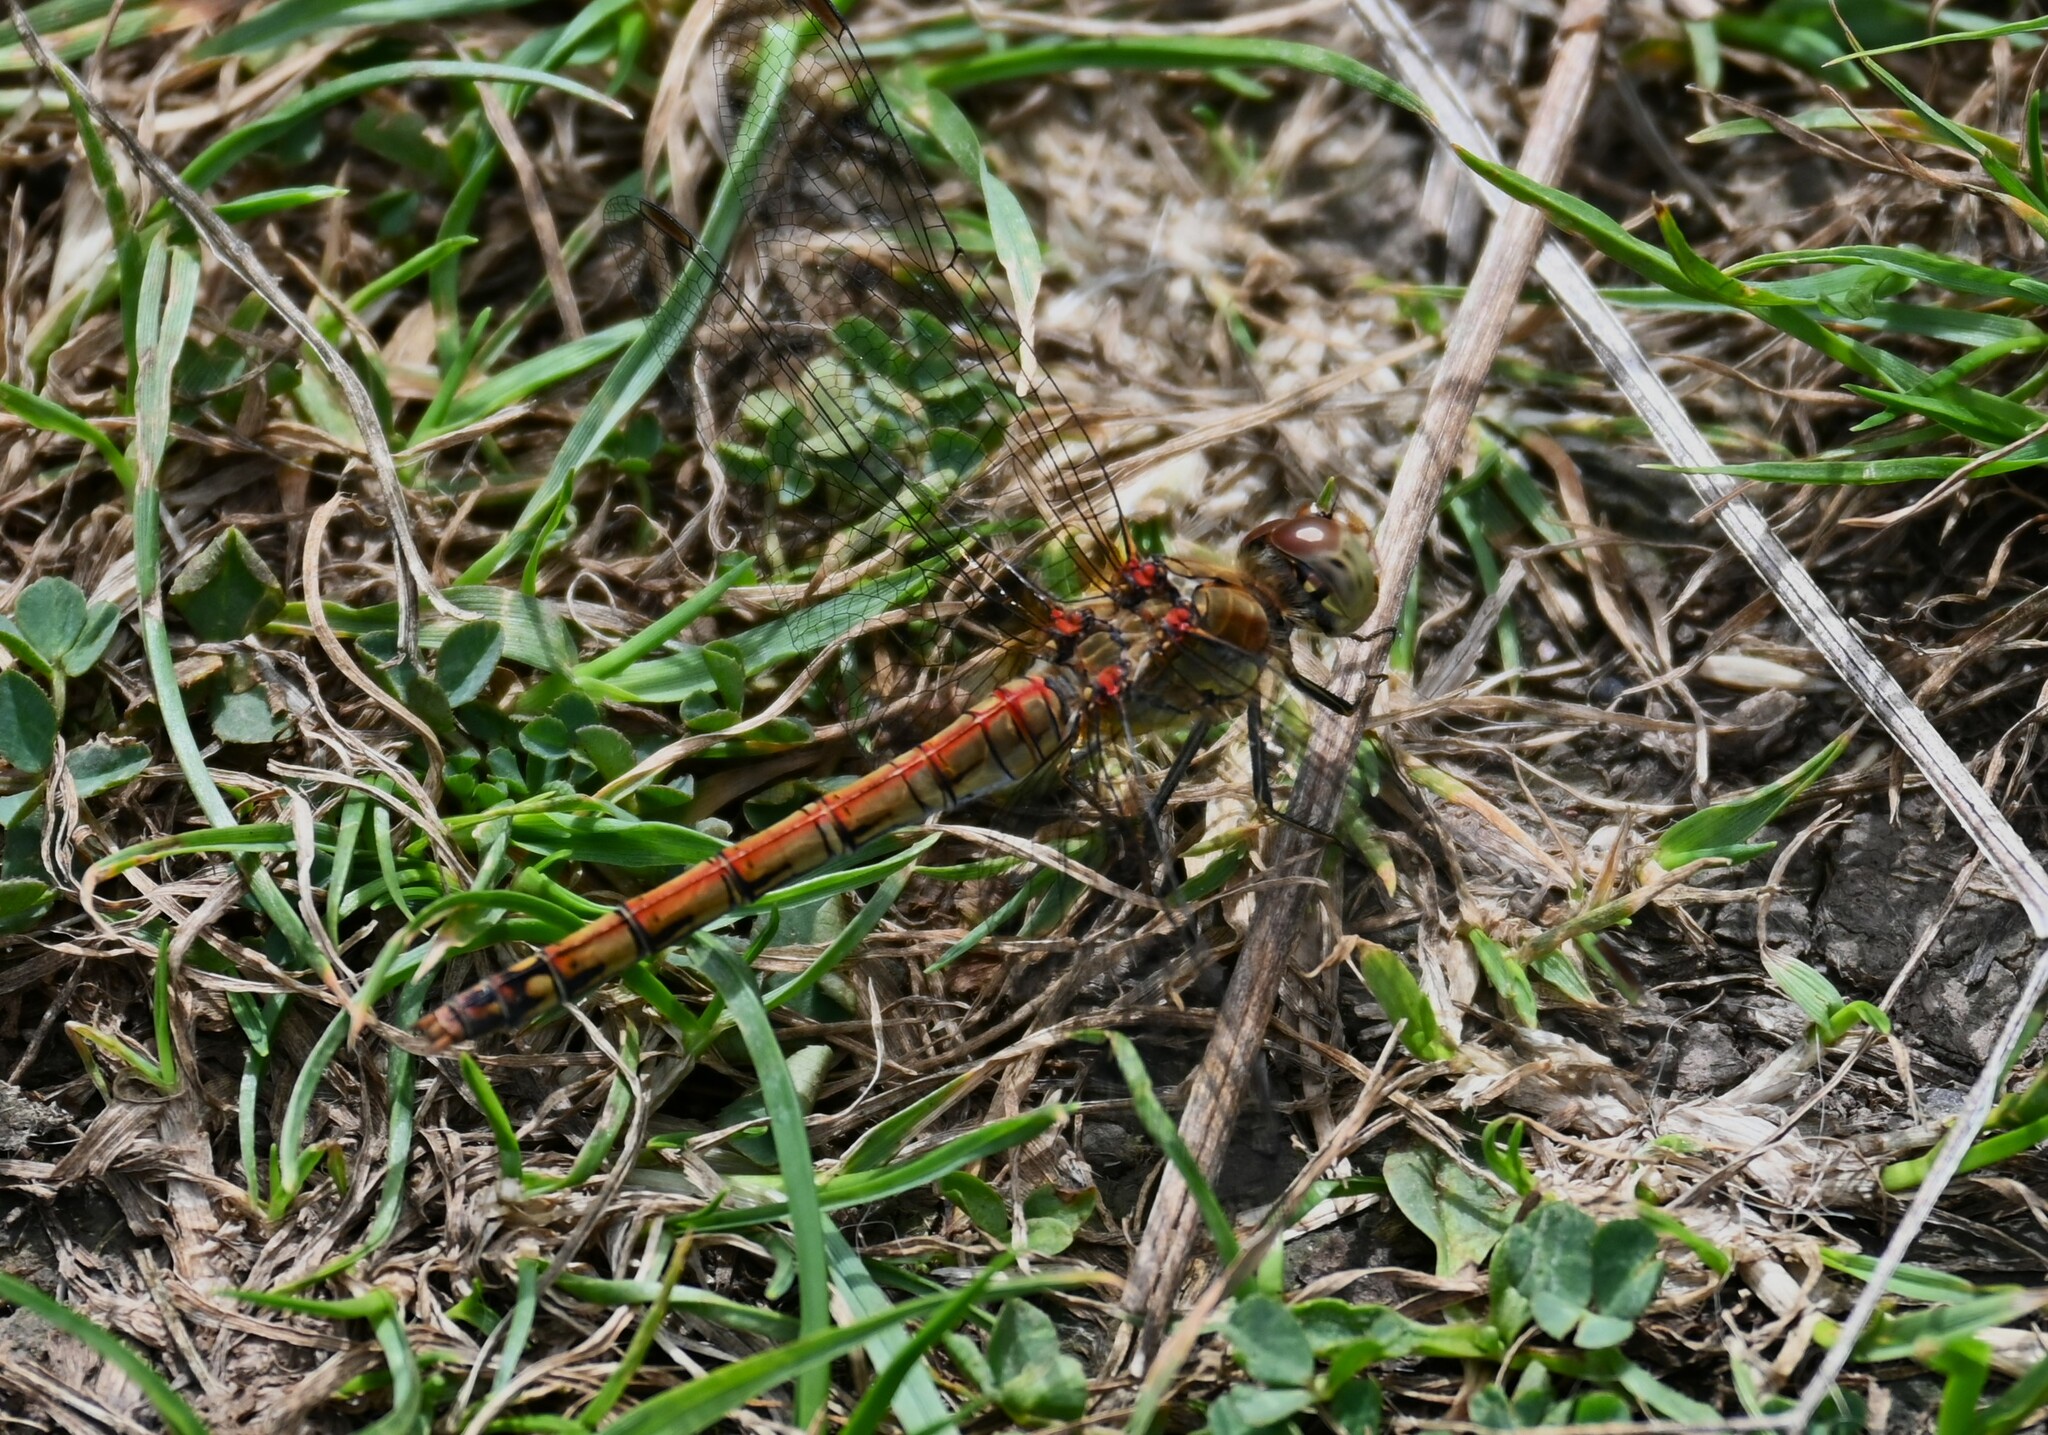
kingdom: Animalia
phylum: Arthropoda
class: Insecta
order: Odonata
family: Libellulidae
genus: Sympetrum
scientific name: Sympetrum striolatum
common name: Common darter
